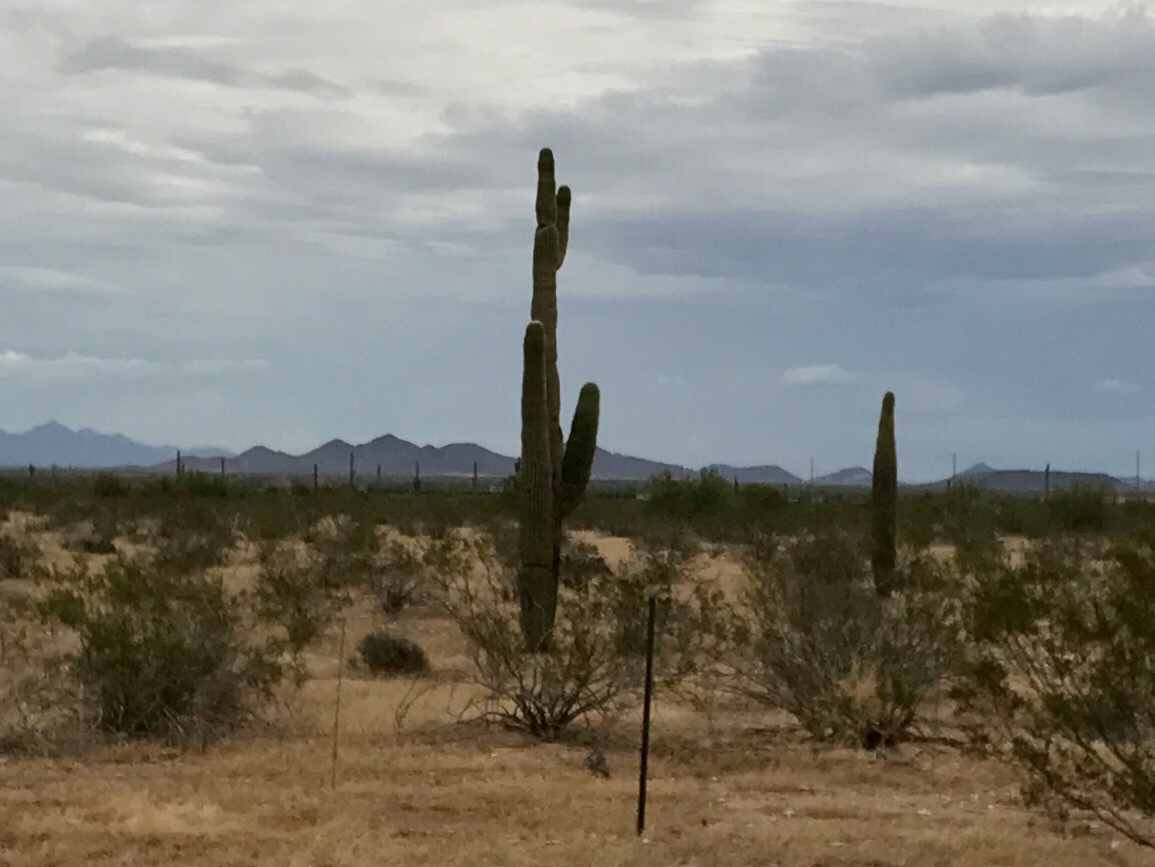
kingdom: Plantae
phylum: Tracheophyta
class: Magnoliopsida
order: Caryophyllales
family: Cactaceae
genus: Carnegiea
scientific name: Carnegiea gigantea
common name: Saguaro
